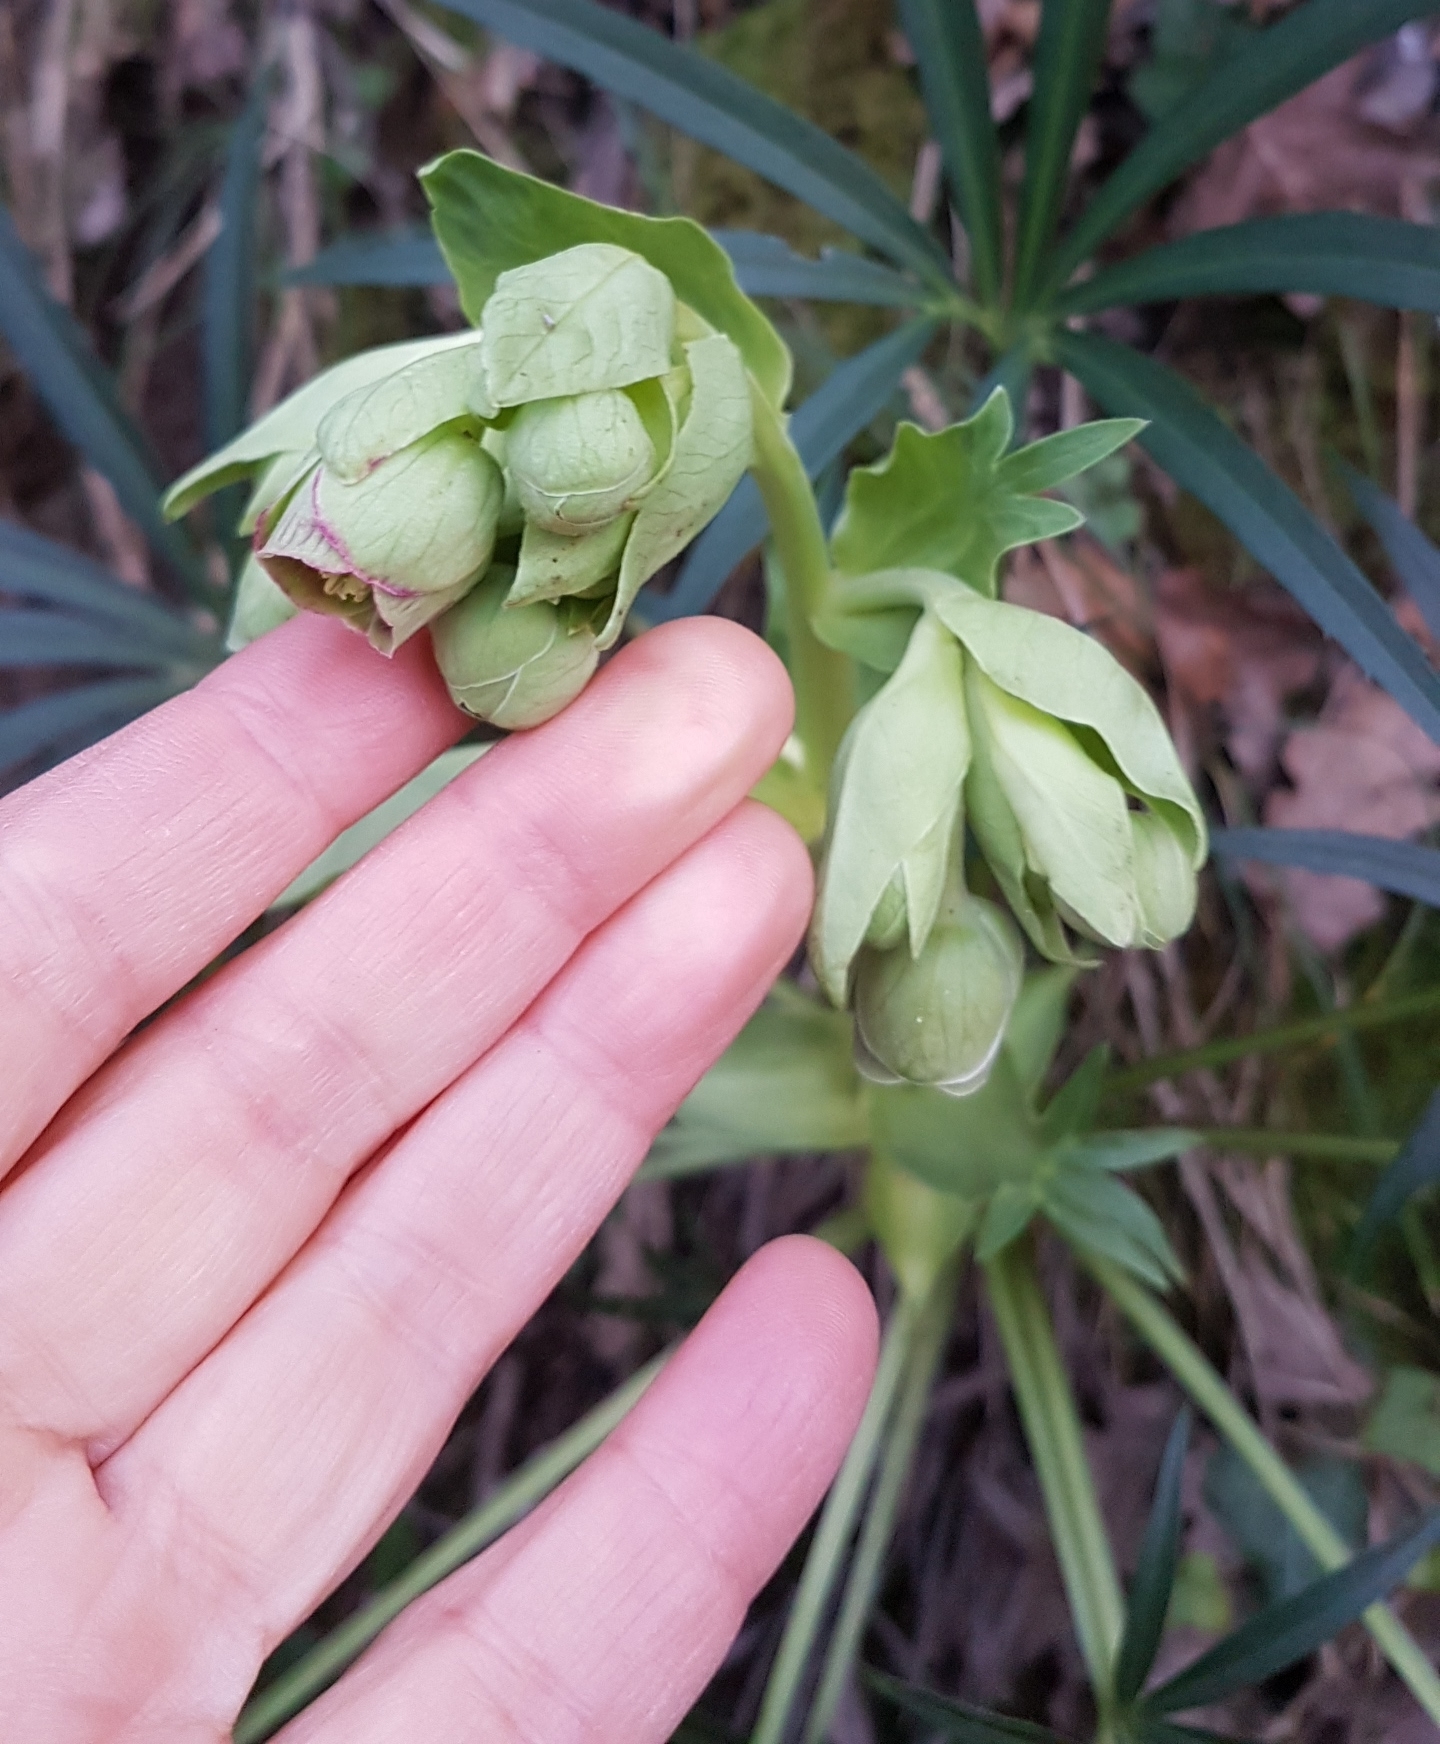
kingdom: Plantae
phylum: Tracheophyta
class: Magnoliopsida
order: Ranunculales
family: Ranunculaceae
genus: Helleborus
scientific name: Helleborus foetidus
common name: Stinking hellebore
